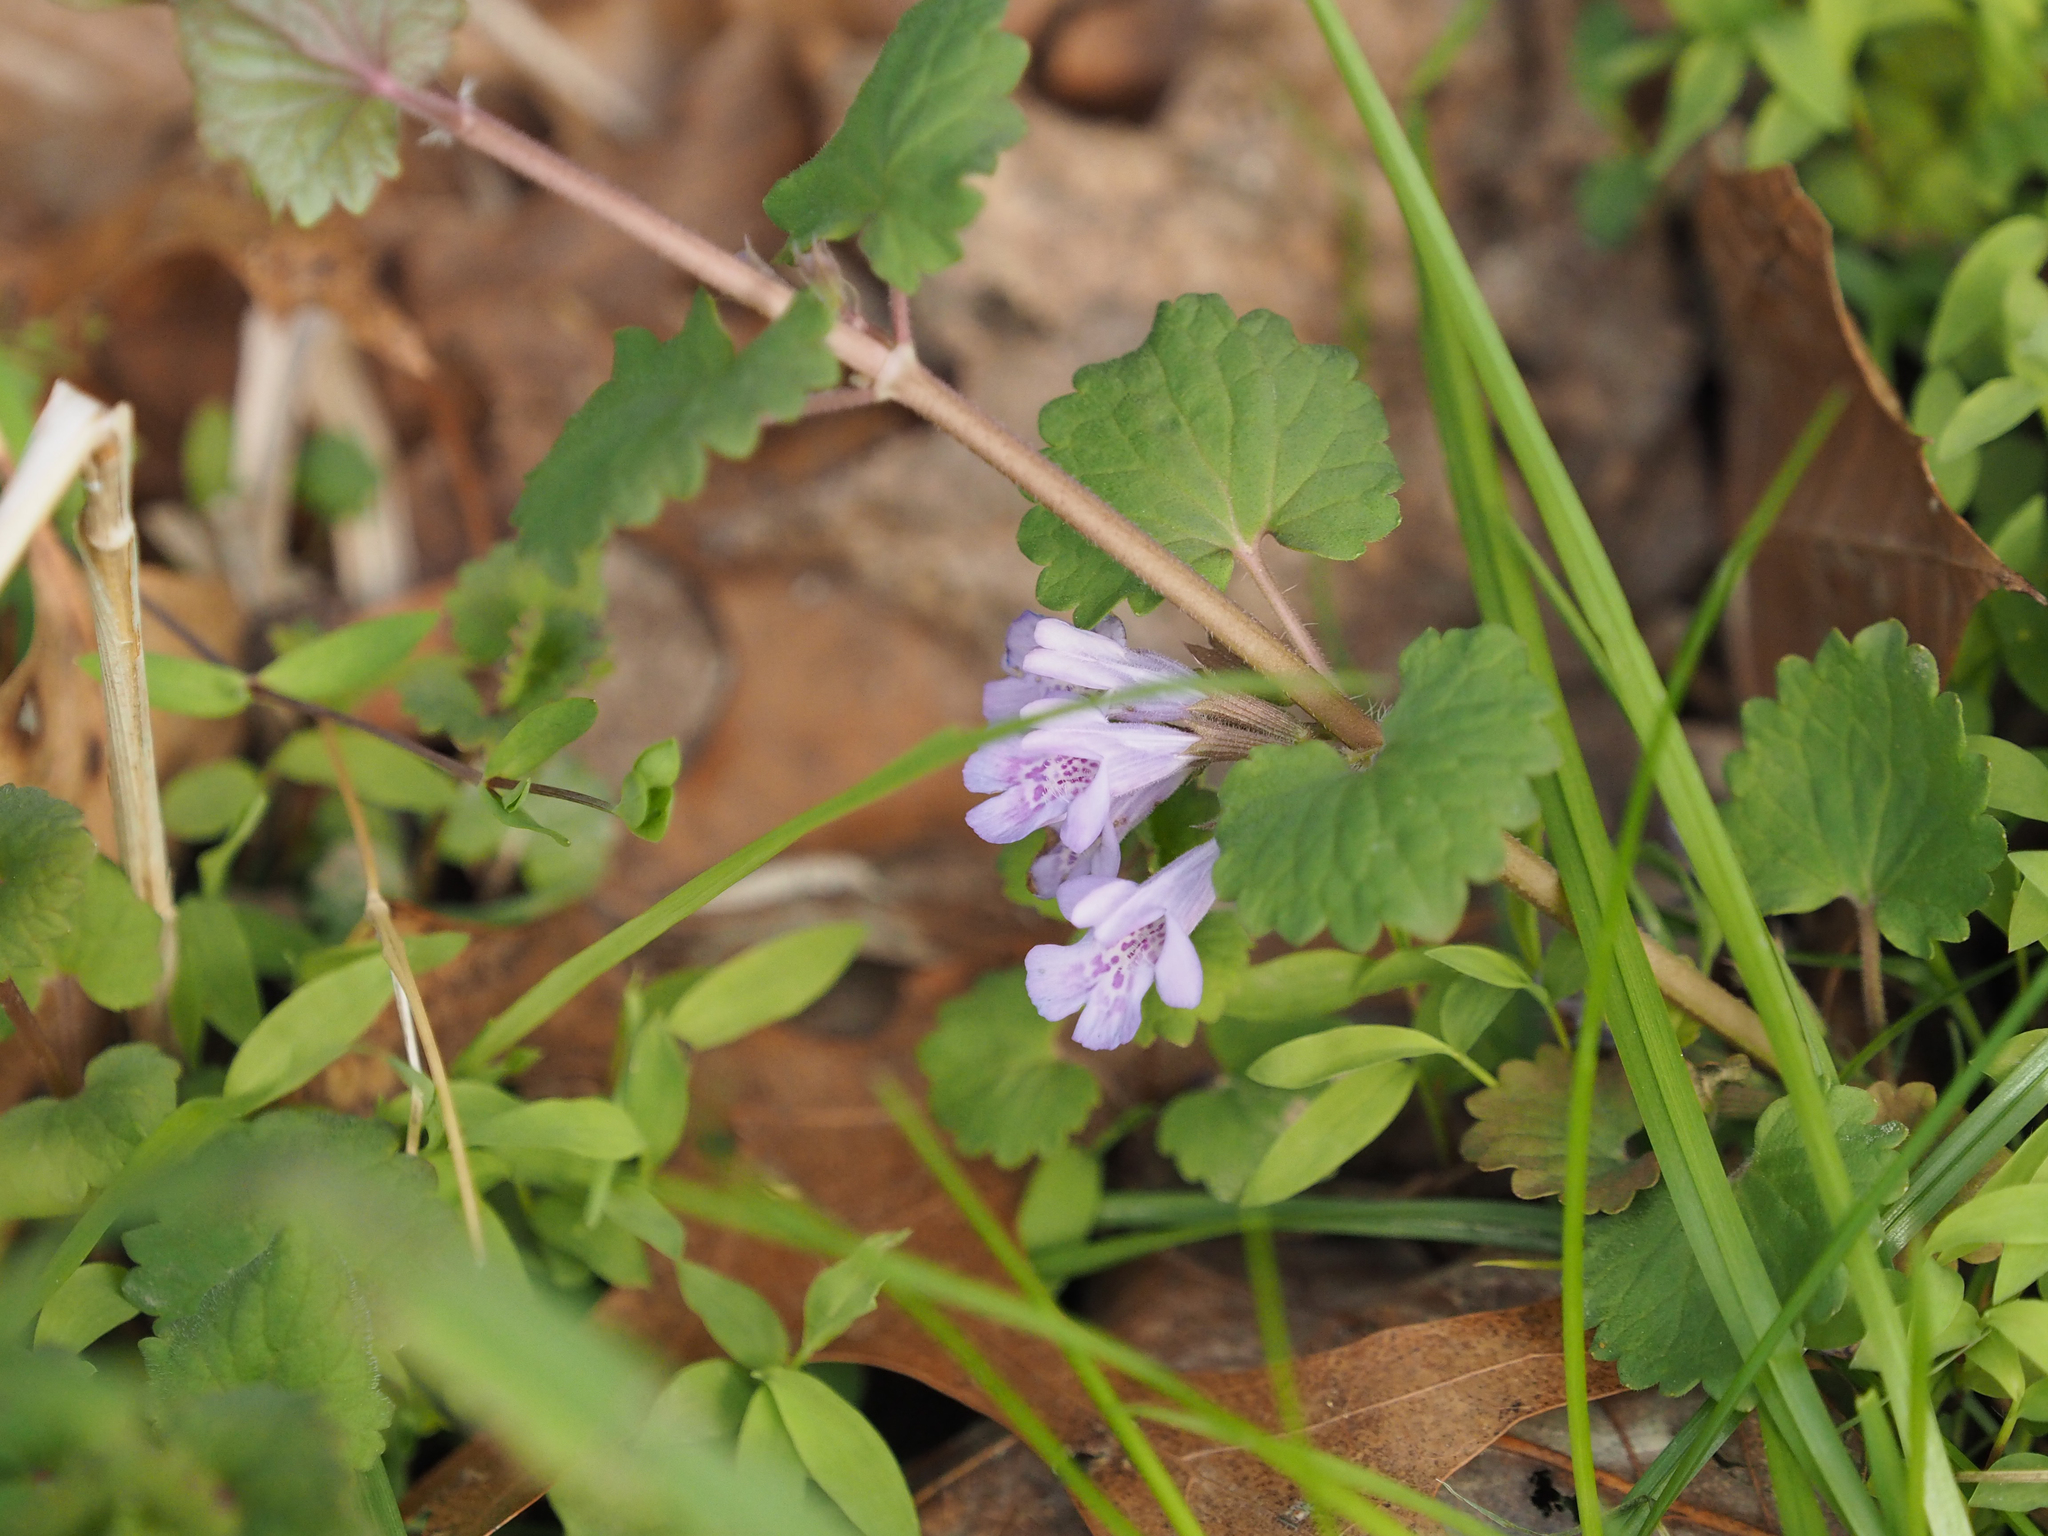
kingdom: Plantae
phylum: Tracheophyta
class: Magnoliopsida
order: Lamiales
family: Lamiaceae
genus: Glechoma
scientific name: Glechoma hederacea
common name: Ground ivy
